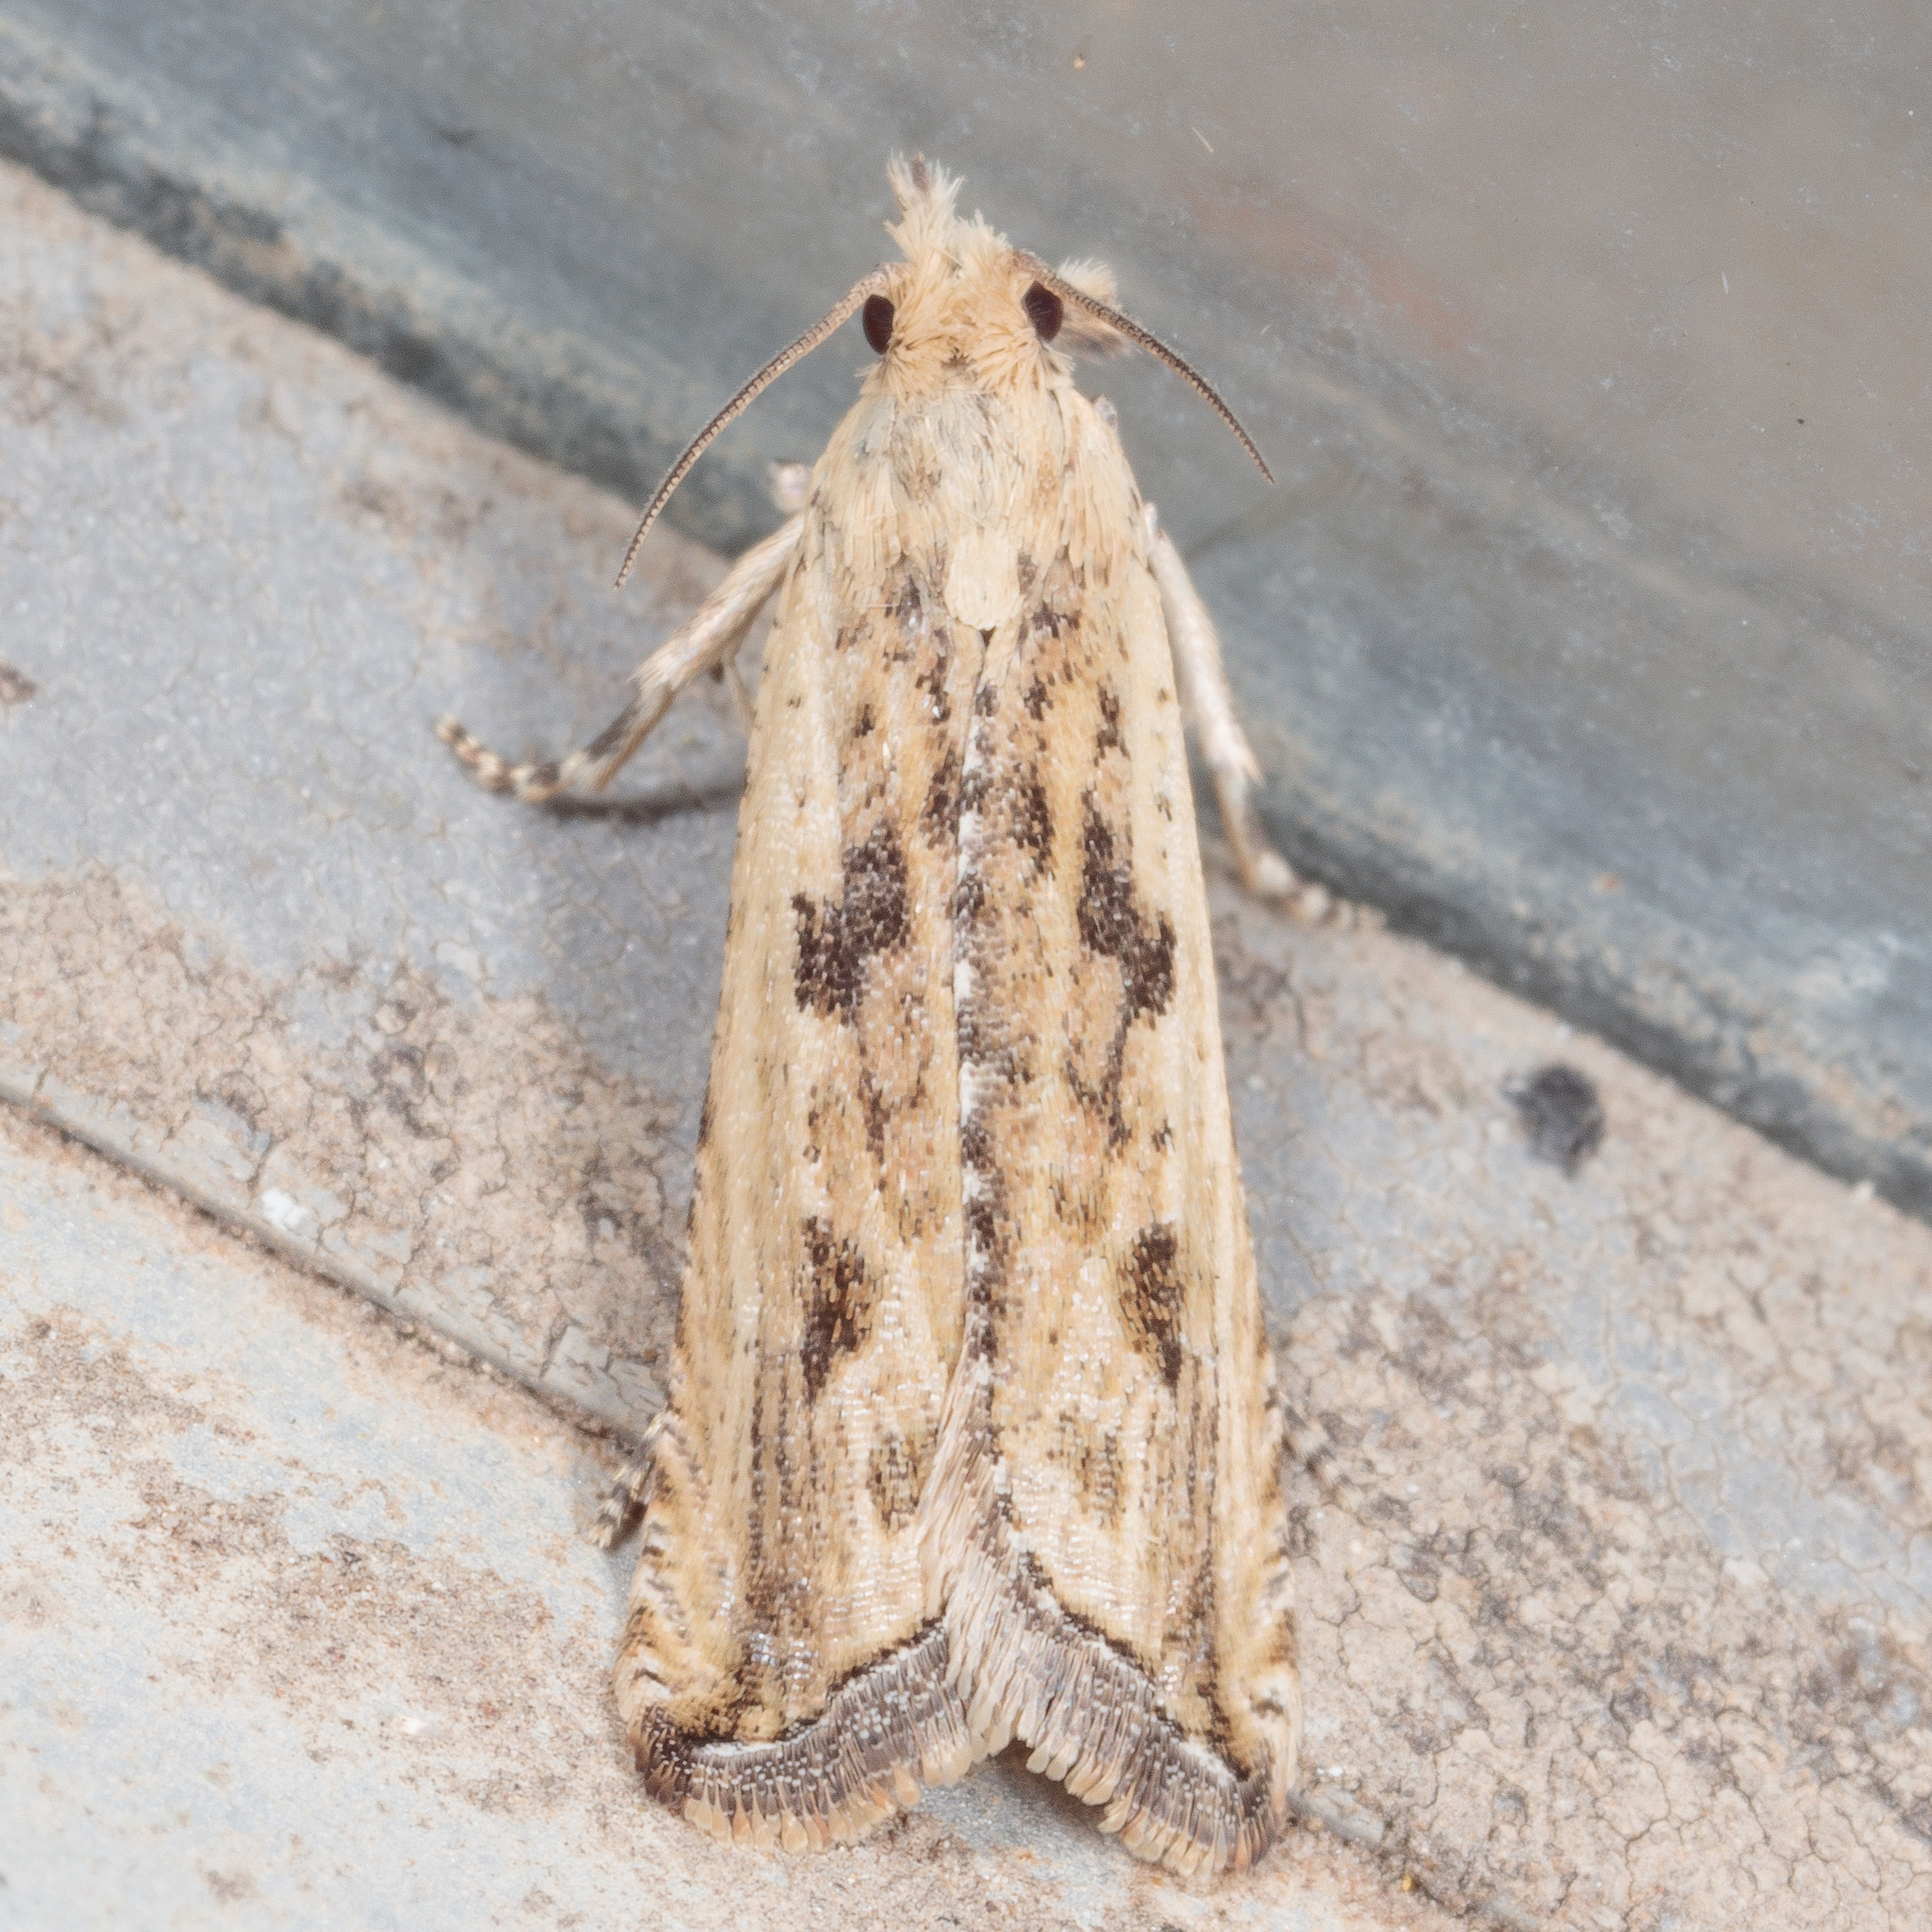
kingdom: Animalia
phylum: Arthropoda
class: Insecta
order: Lepidoptera
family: Tortricidae
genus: Bactra
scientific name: Bactra verutana
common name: Javelin moth
